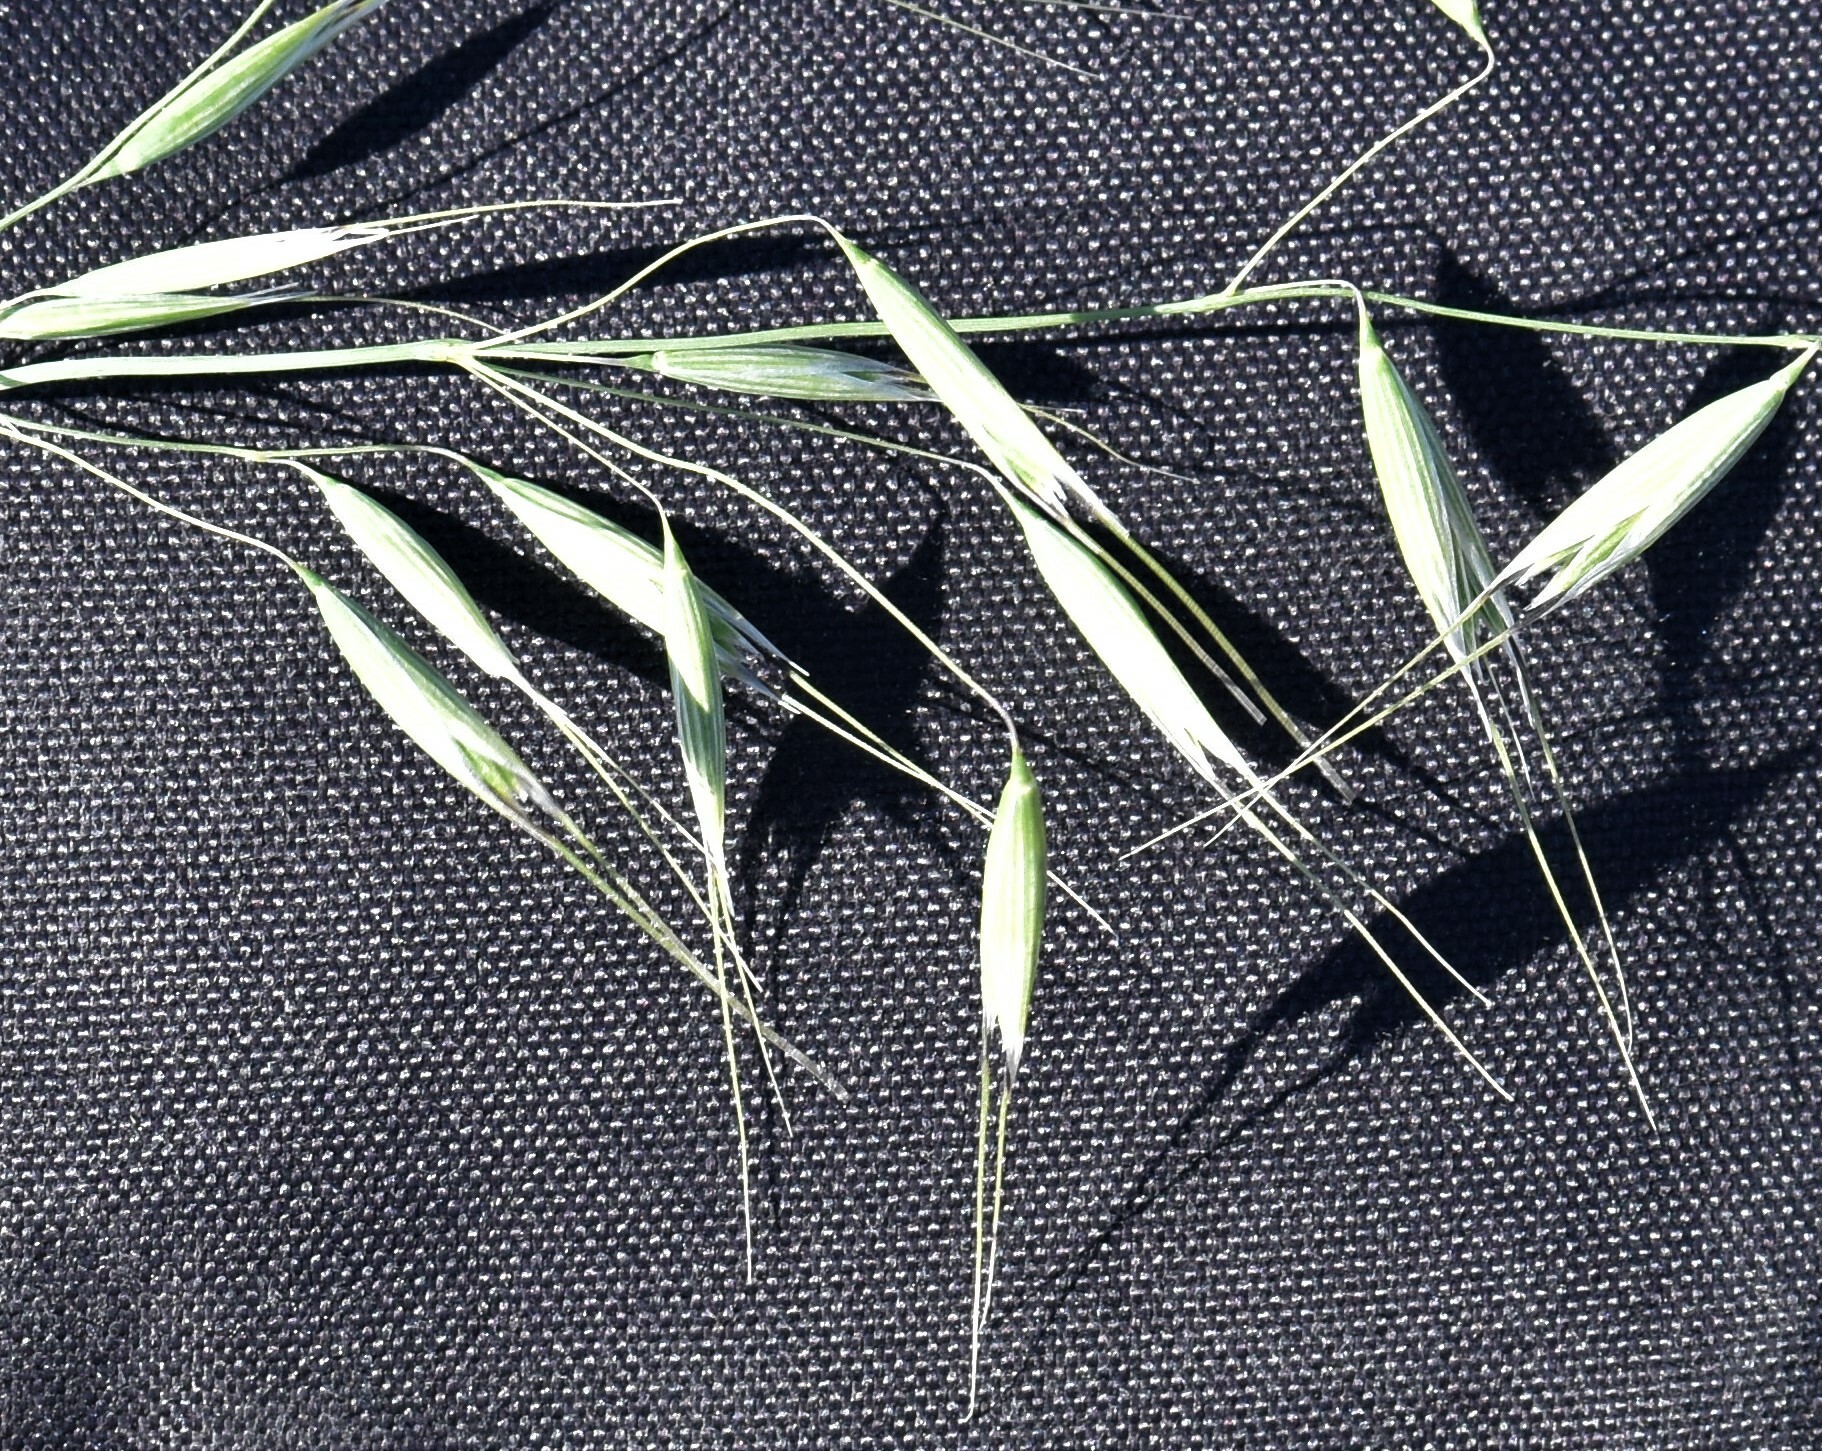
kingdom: Plantae
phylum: Tracheophyta
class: Liliopsida
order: Poales
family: Poaceae
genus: Avena
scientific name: Avena fatua
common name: Wild oat
